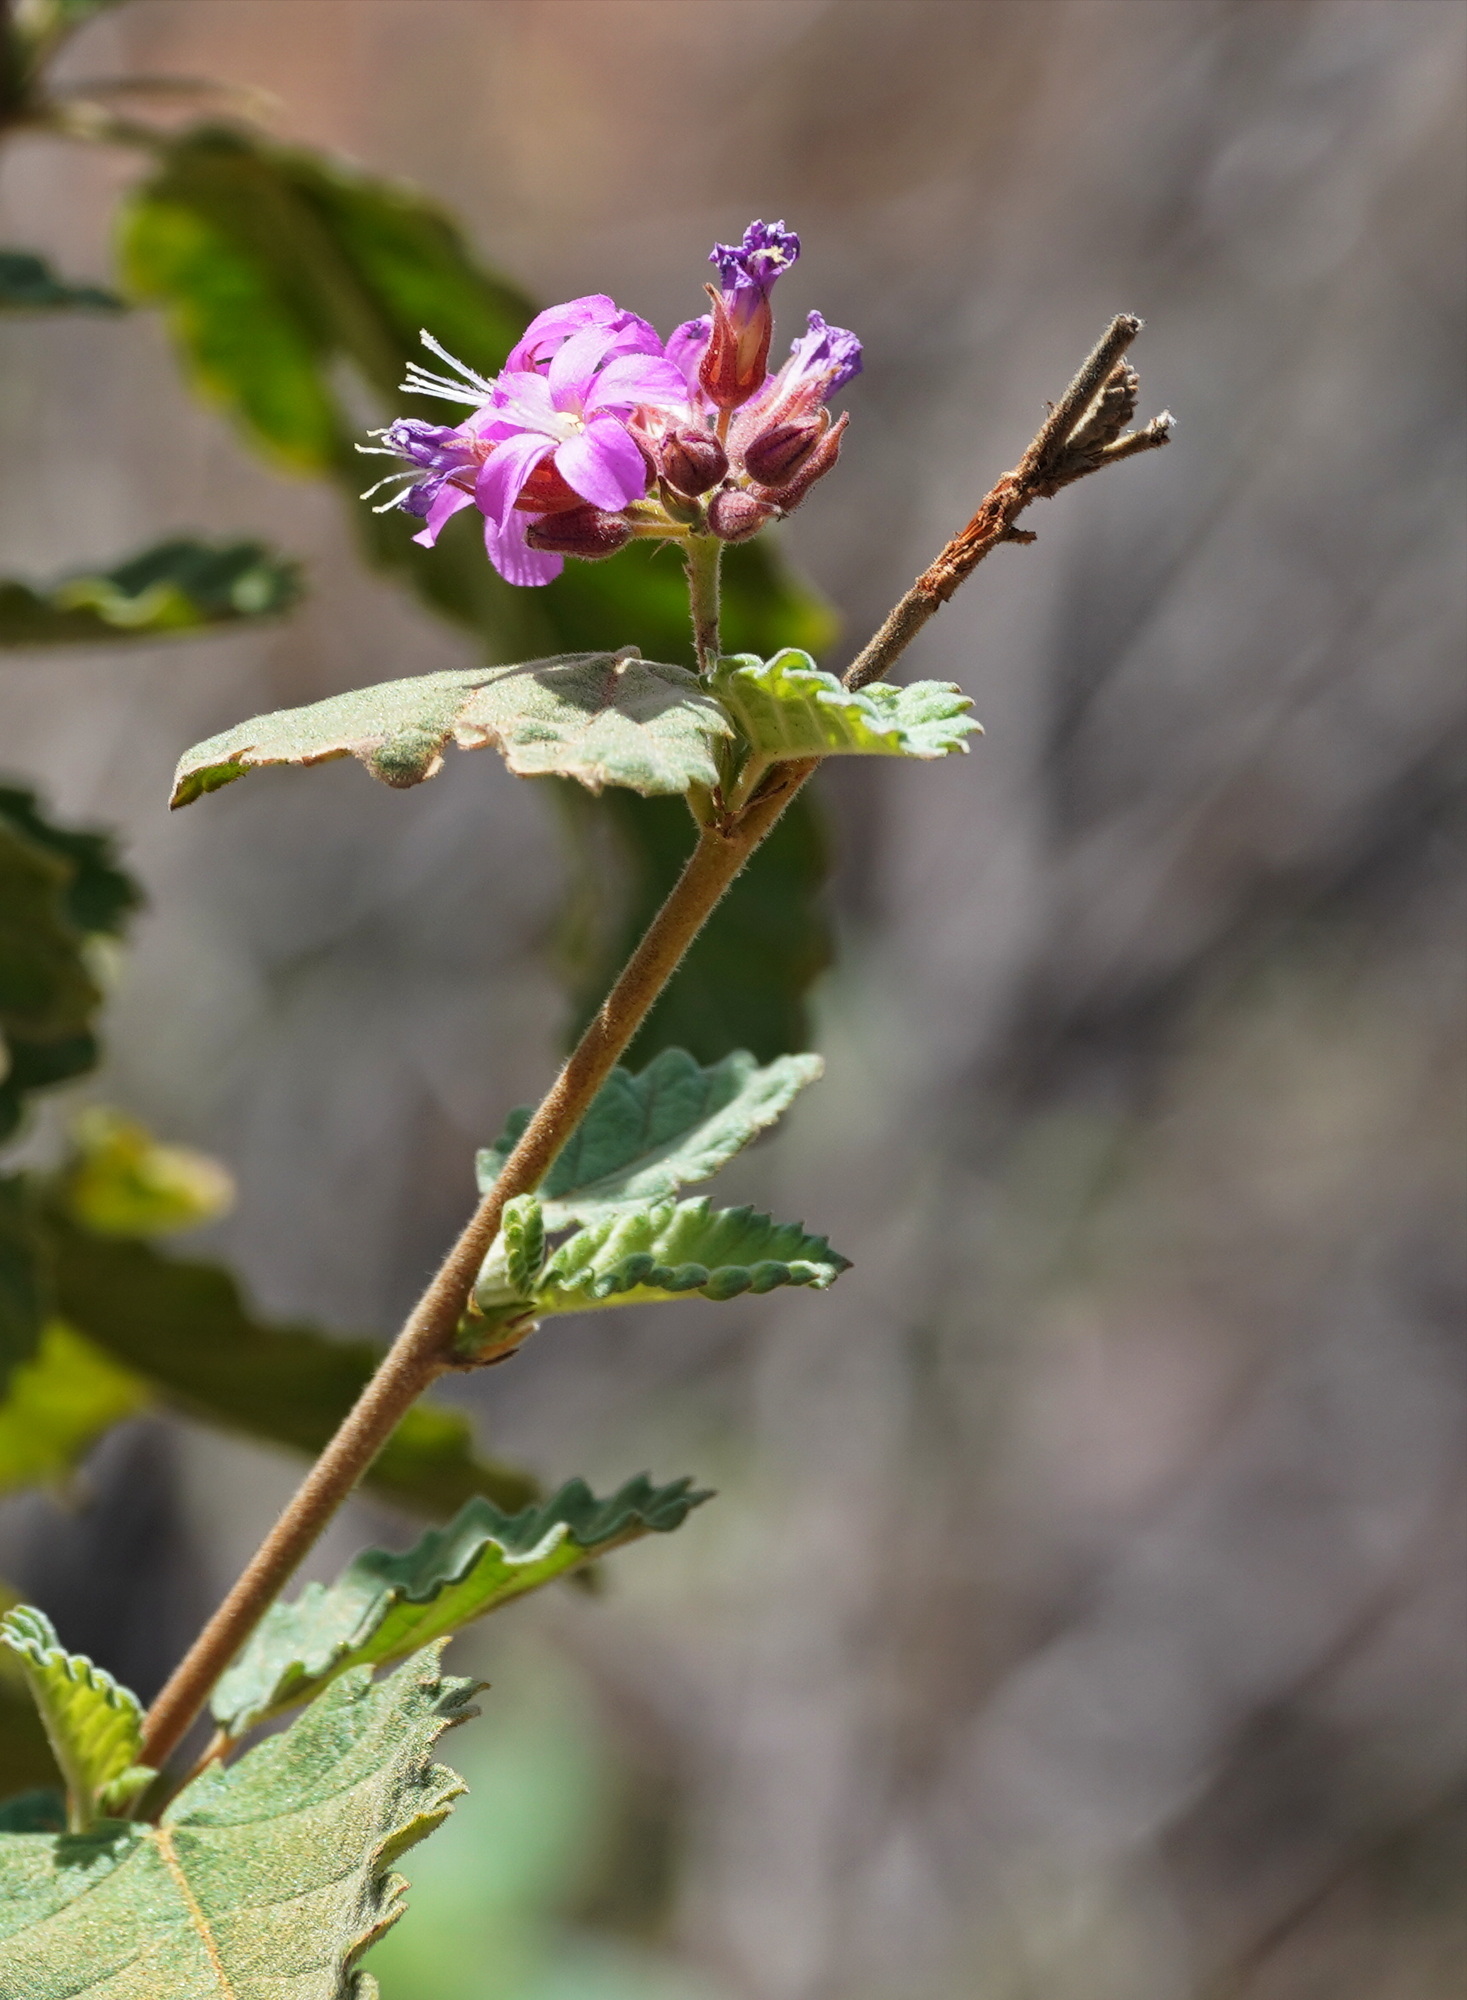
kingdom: Plantae
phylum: Tracheophyta
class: Magnoliopsida
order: Malvales
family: Malvaceae
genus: Melochia
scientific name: Melochia tomentosa
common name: Black torch
